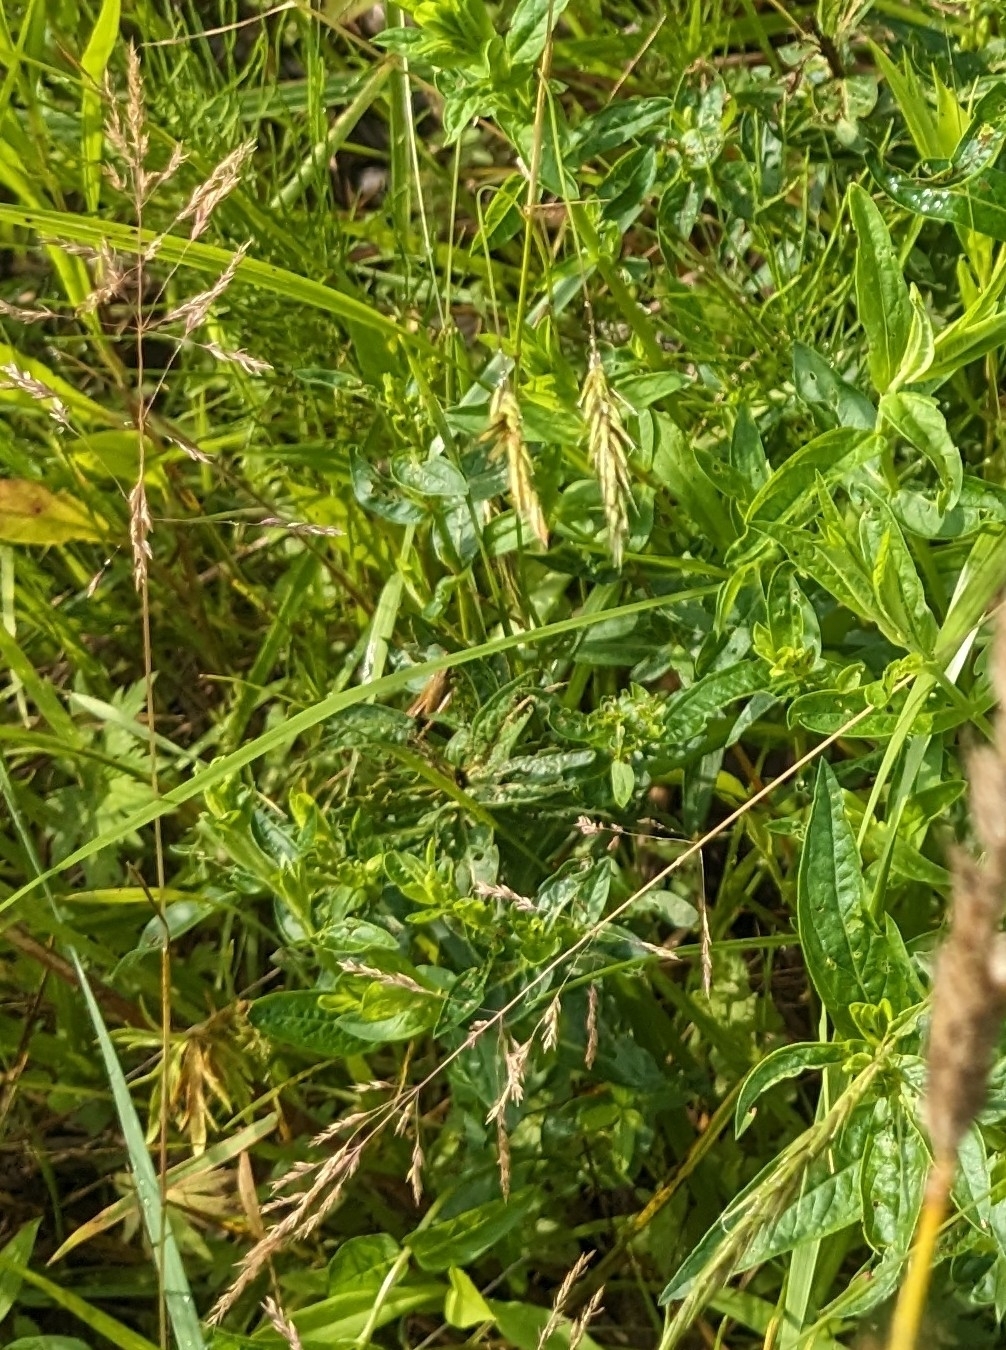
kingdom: Plantae
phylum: Tracheophyta
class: Magnoliopsida
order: Myrtales
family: Lythraceae
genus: Lythrum
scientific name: Lythrum salicaria
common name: Purple loosestrife
